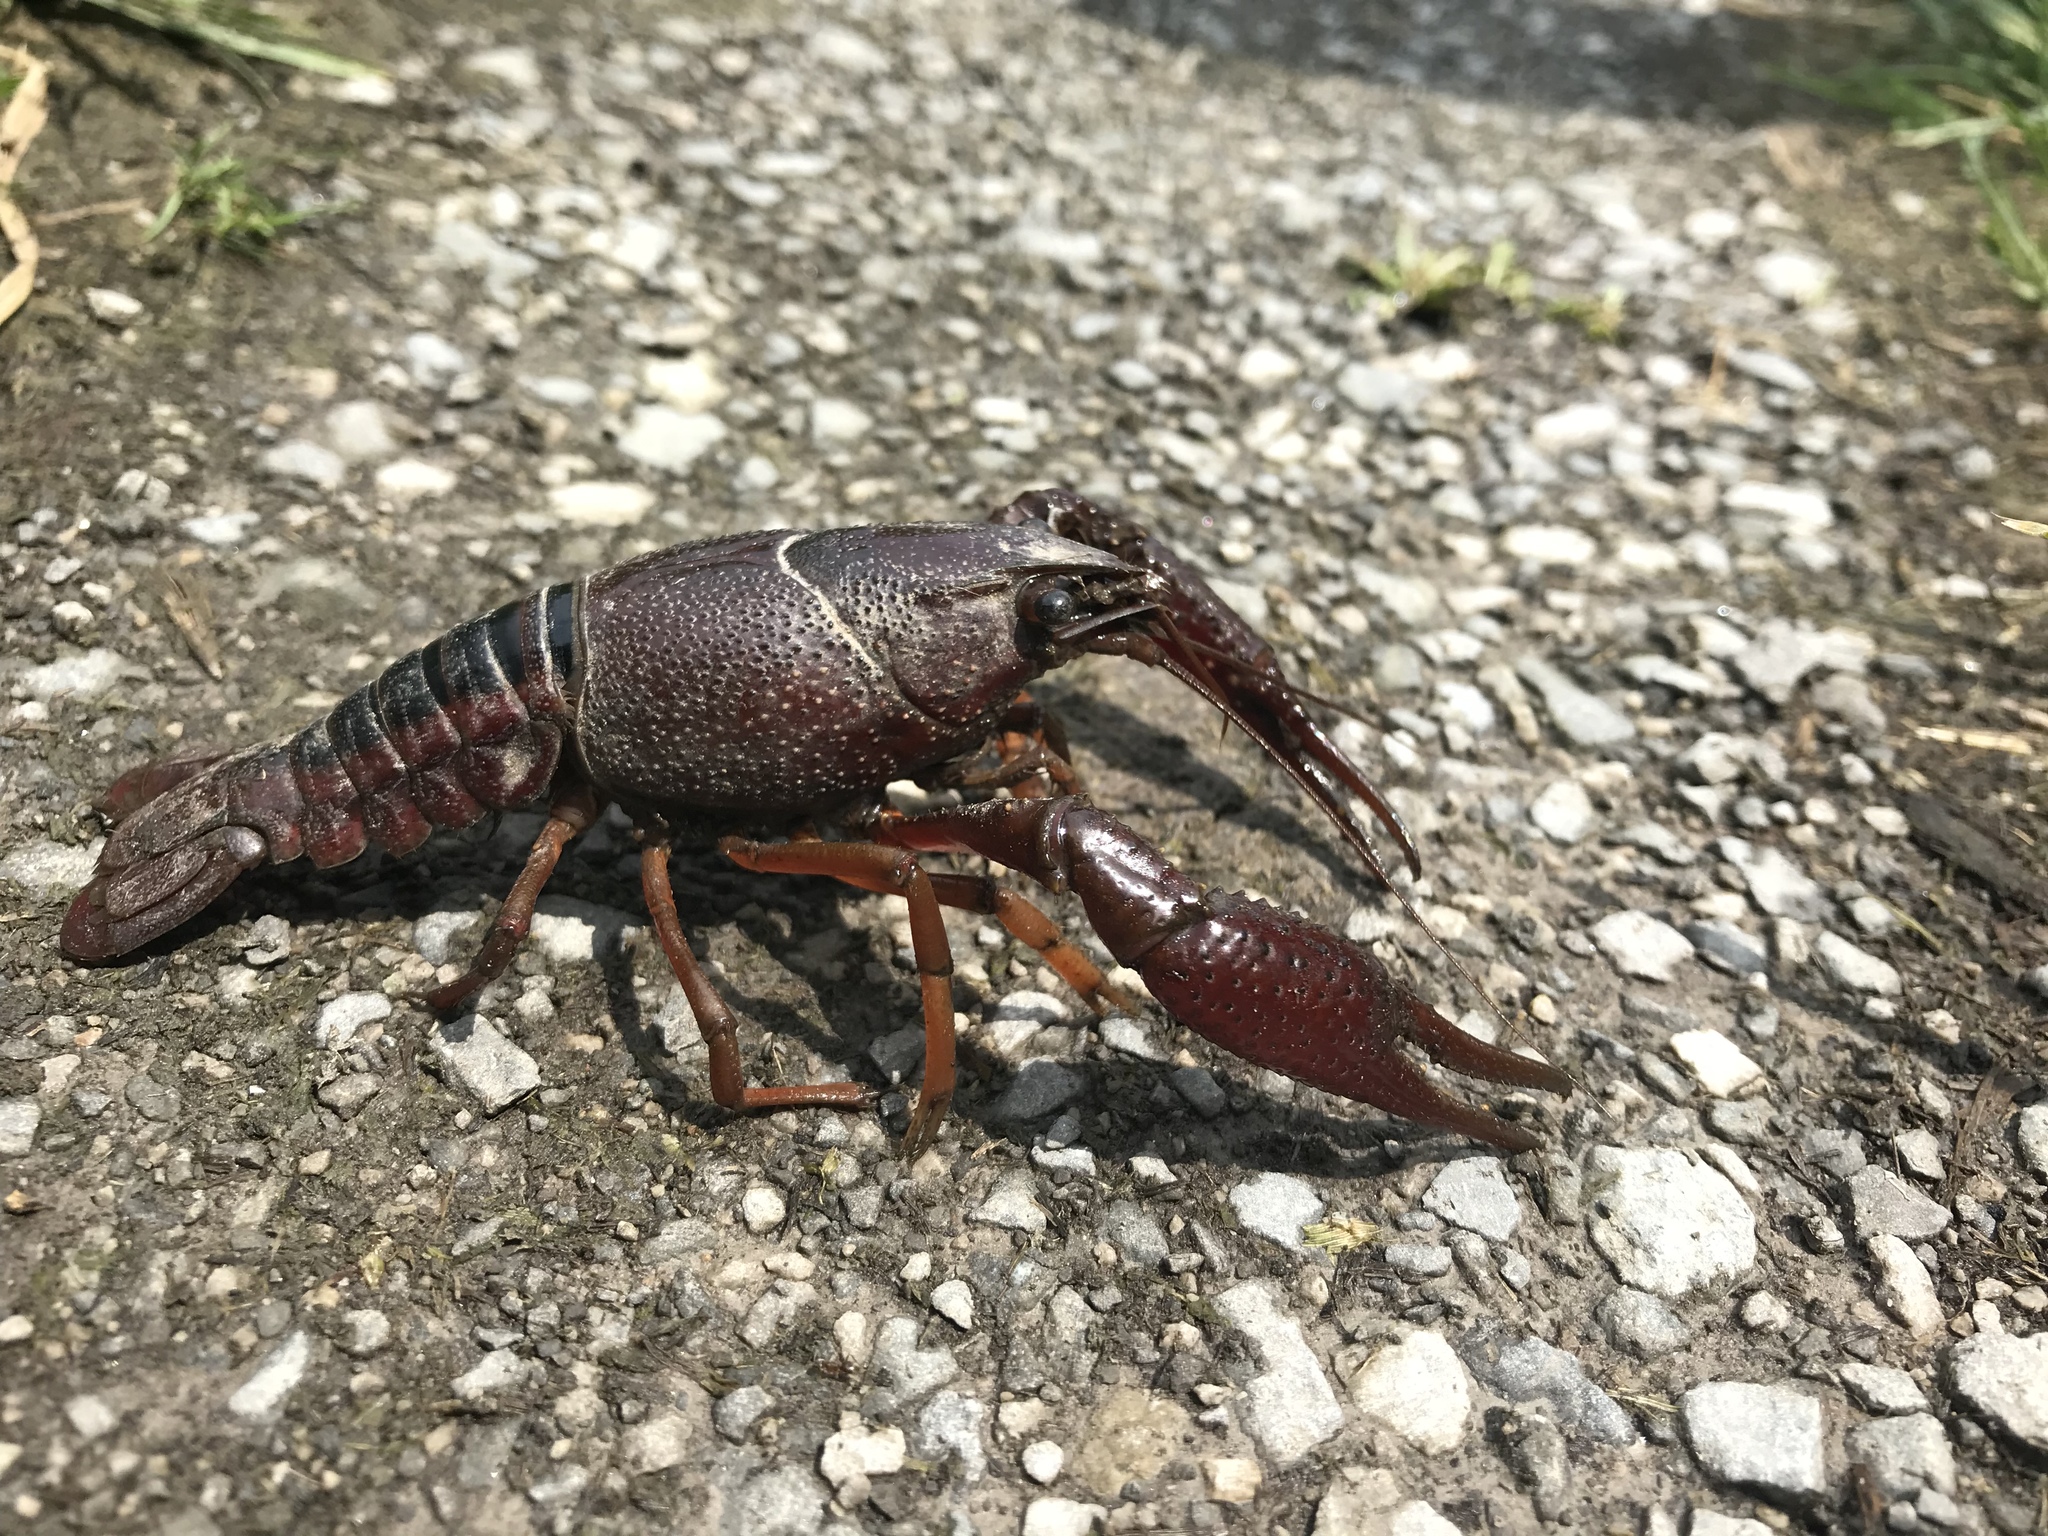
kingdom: Animalia
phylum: Arthropoda
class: Malacostraca
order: Decapoda
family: Cambaridae
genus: Procambarus
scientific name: Procambarus acutus
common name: White river crayfish
